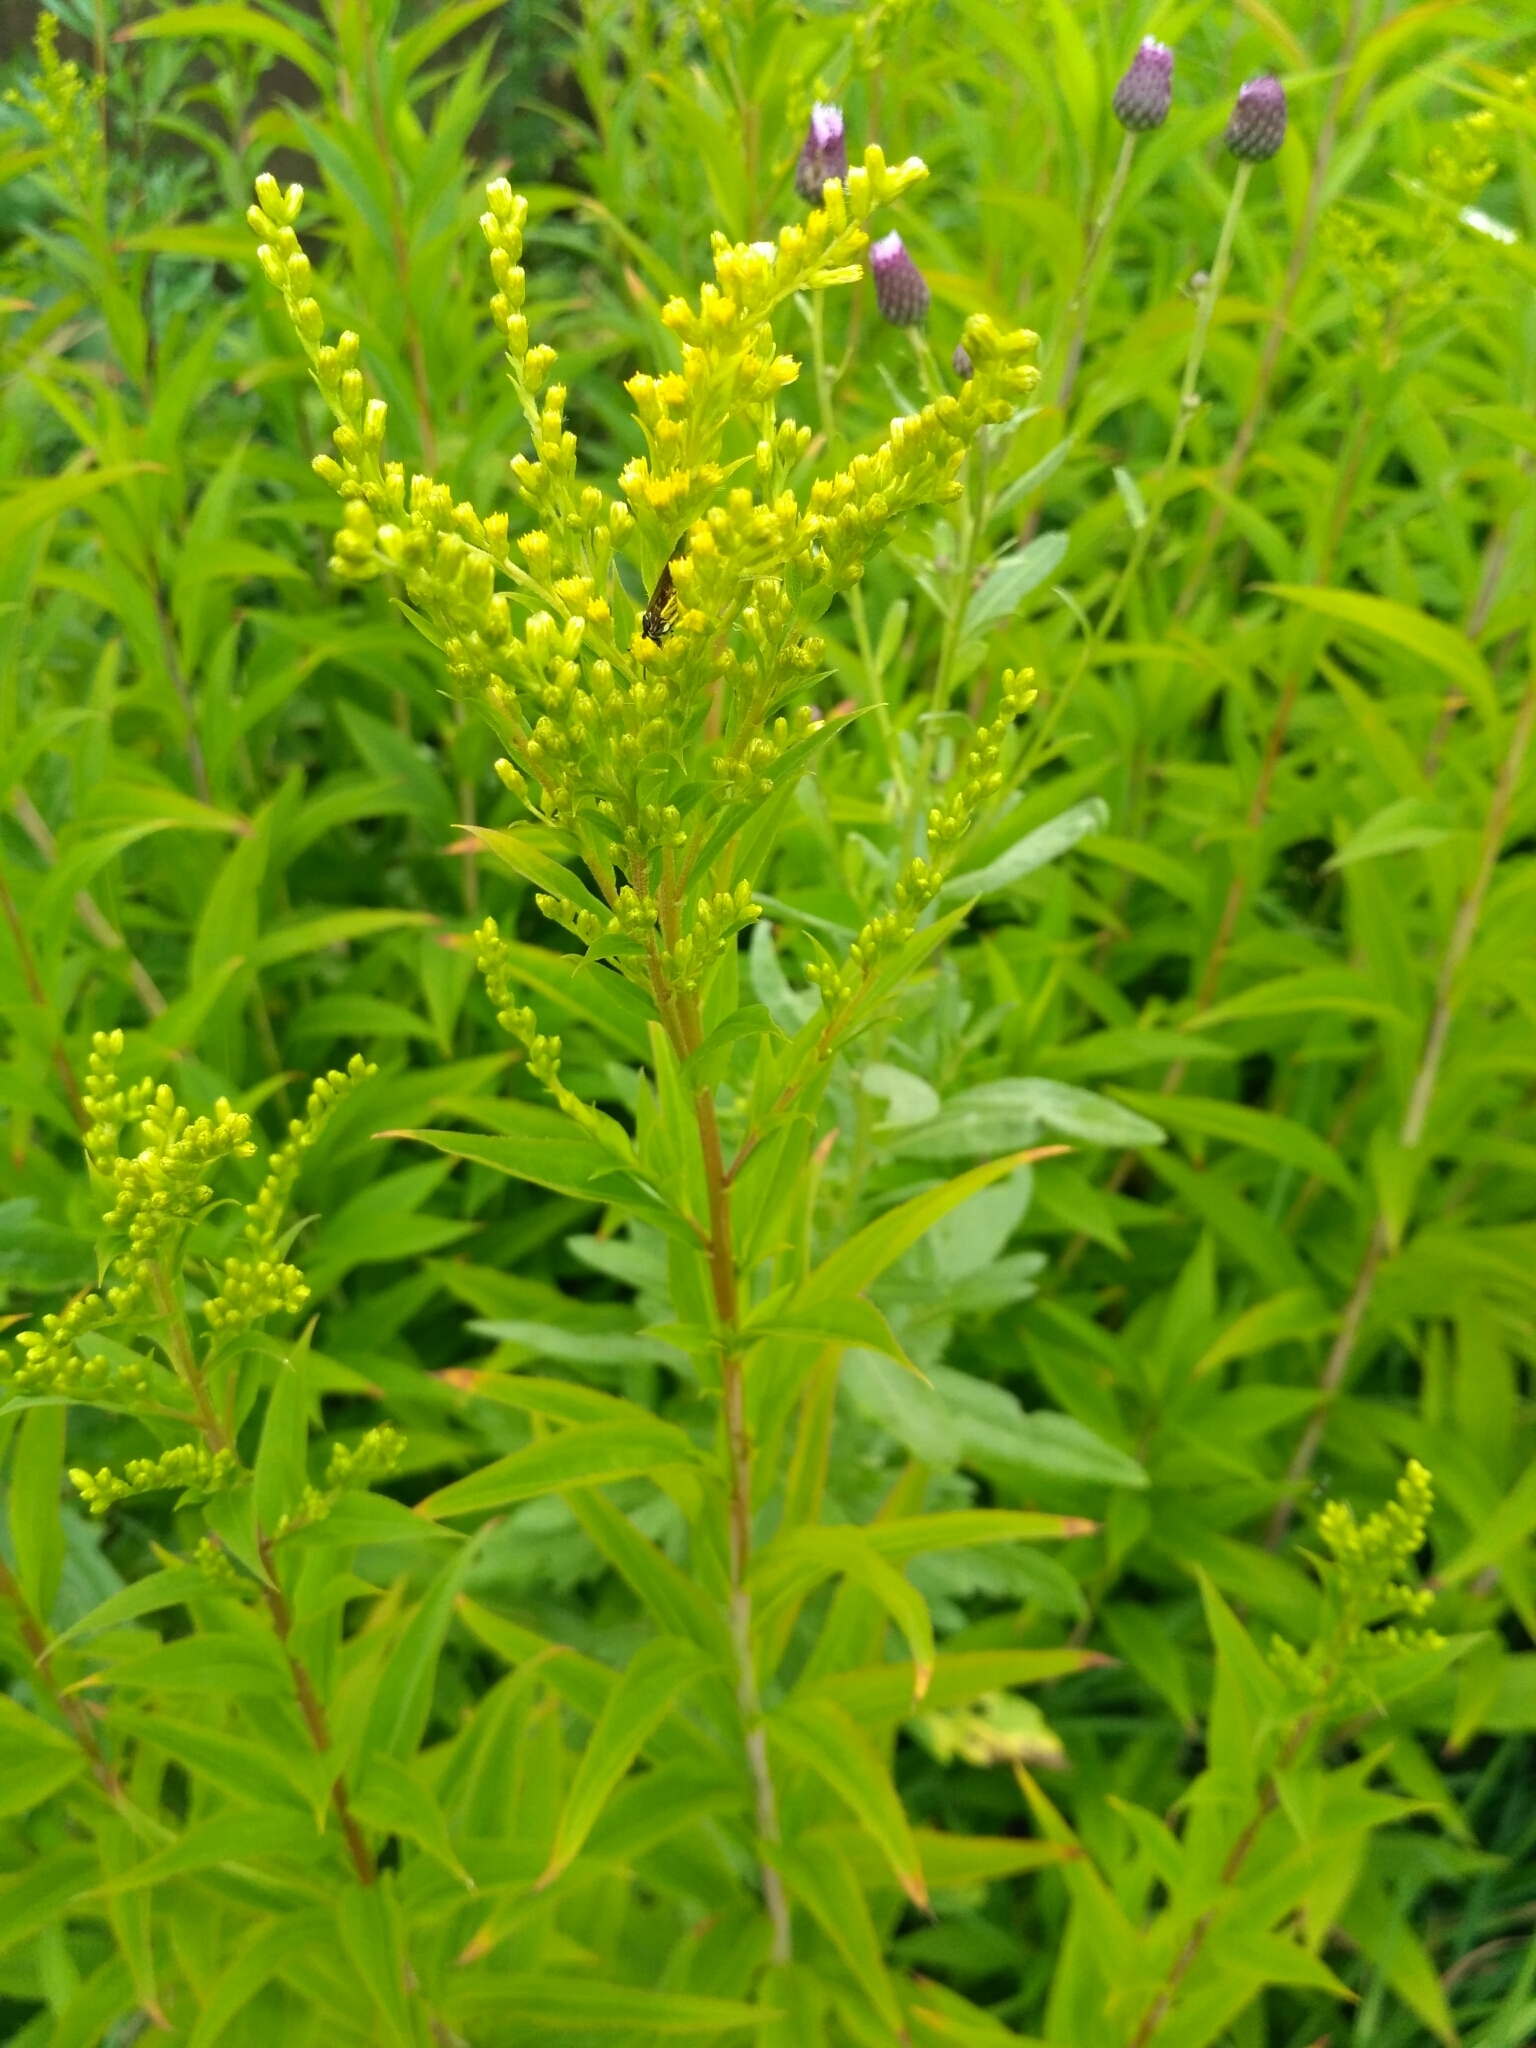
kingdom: Plantae
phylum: Tracheophyta
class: Magnoliopsida
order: Asterales
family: Asteraceae
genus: Solidago
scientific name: Solidago gigantea
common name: Giant goldenrod
